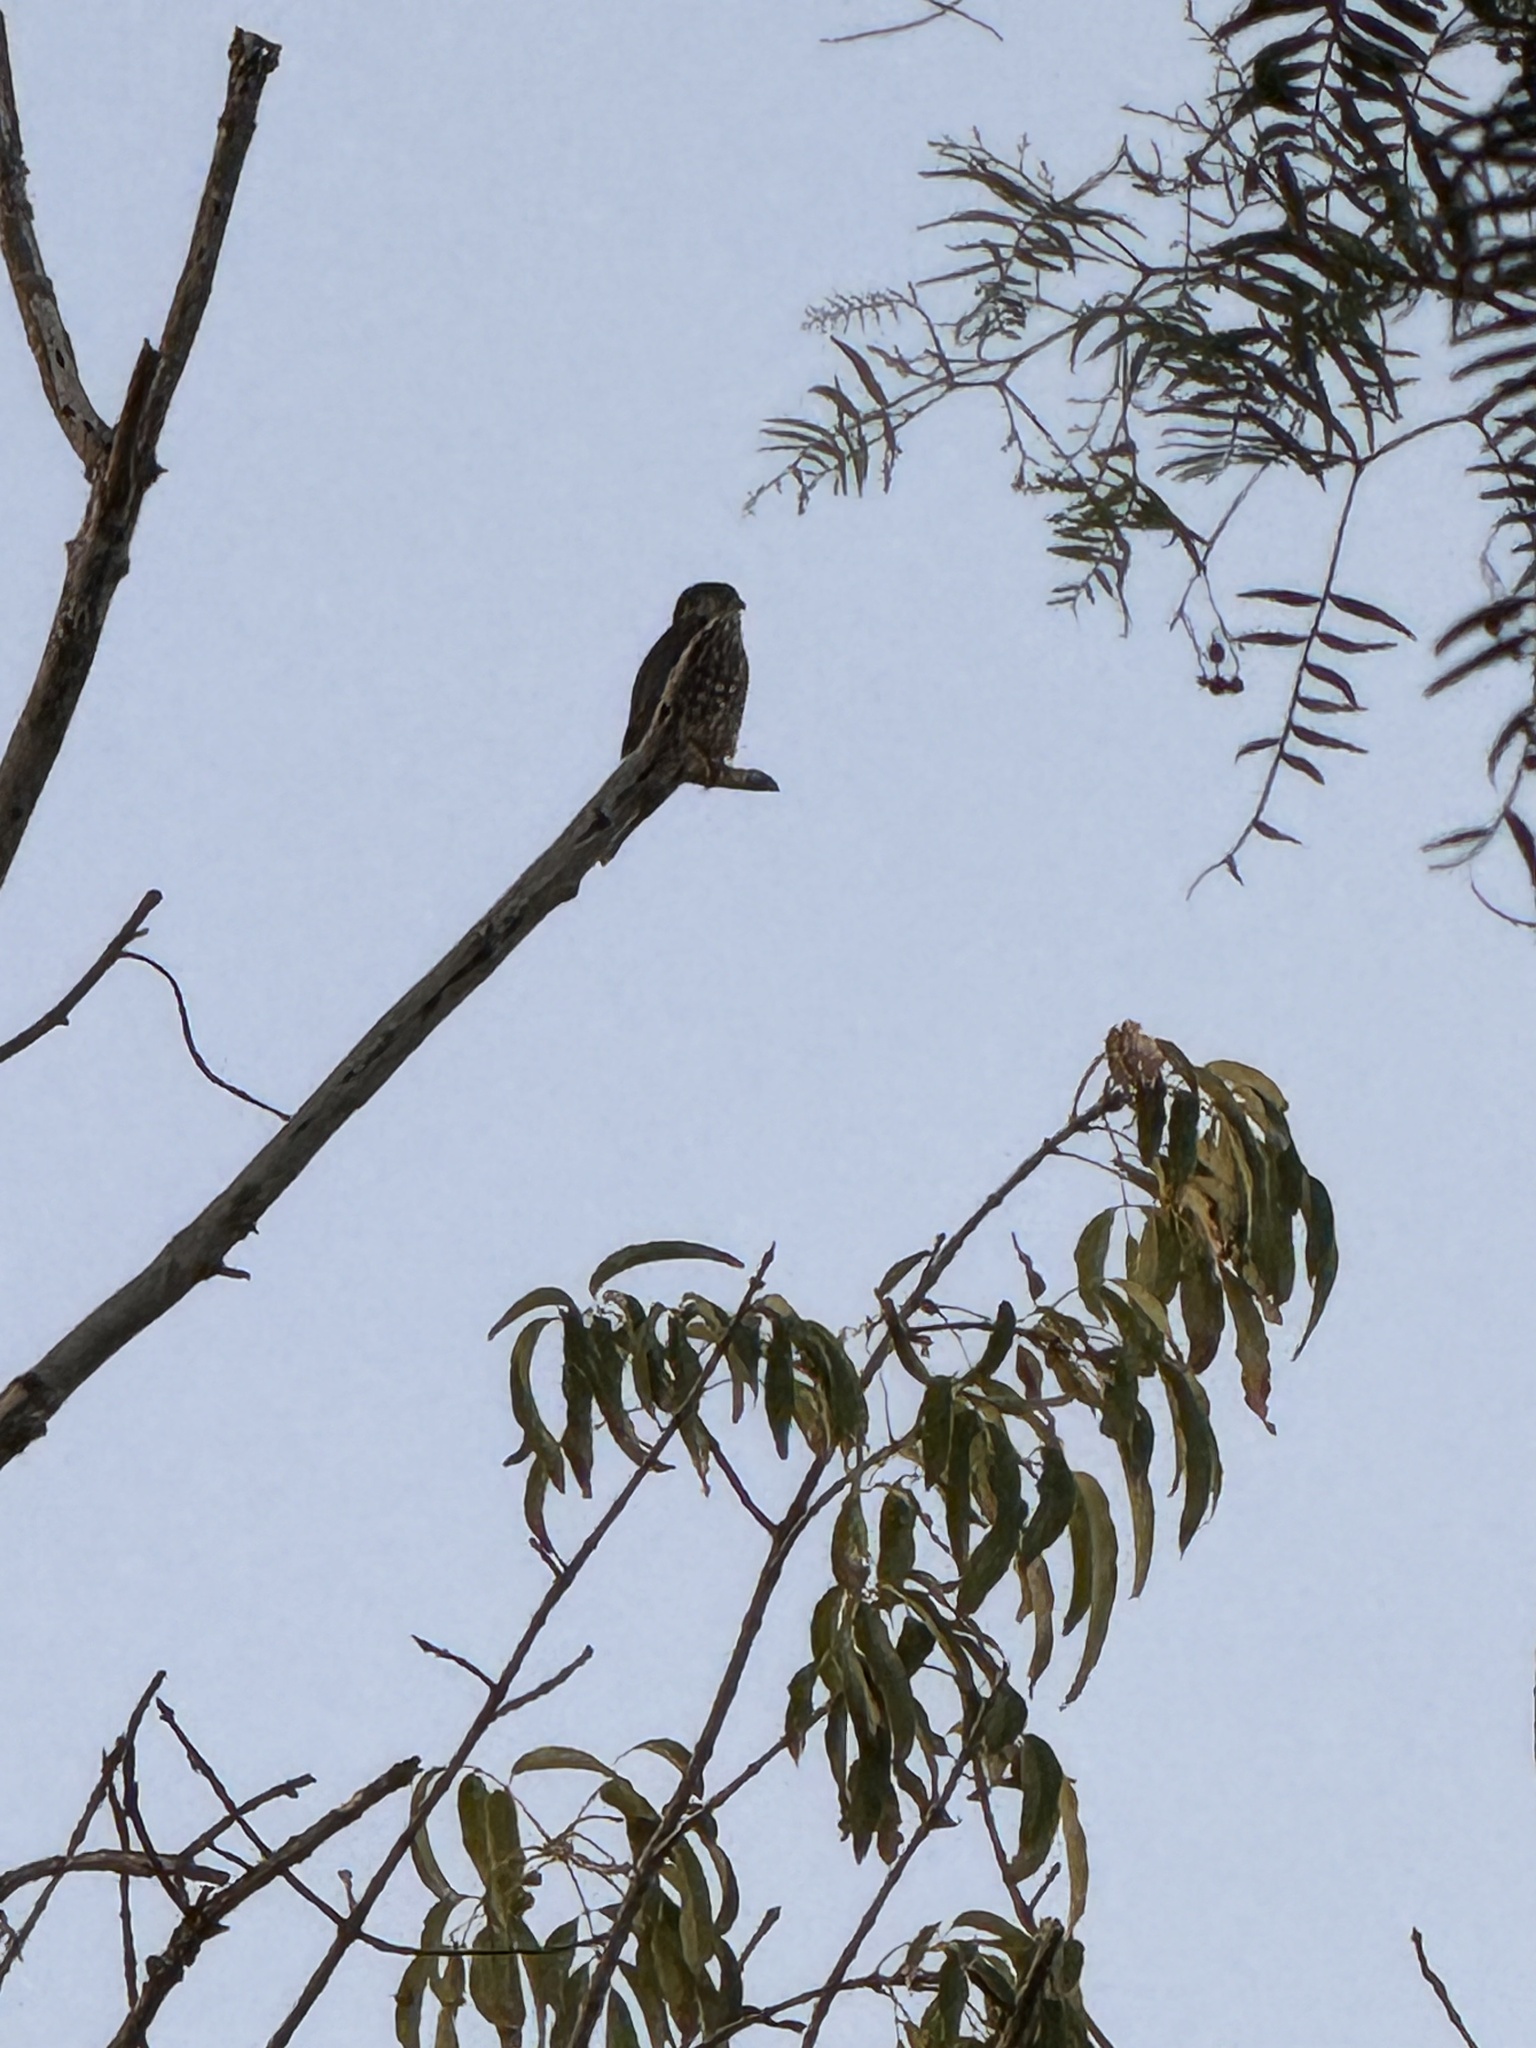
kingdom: Animalia
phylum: Chordata
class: Aves
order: Falconiformes
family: Falconidae
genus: Falco
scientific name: Falco columbarius
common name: Merlin
